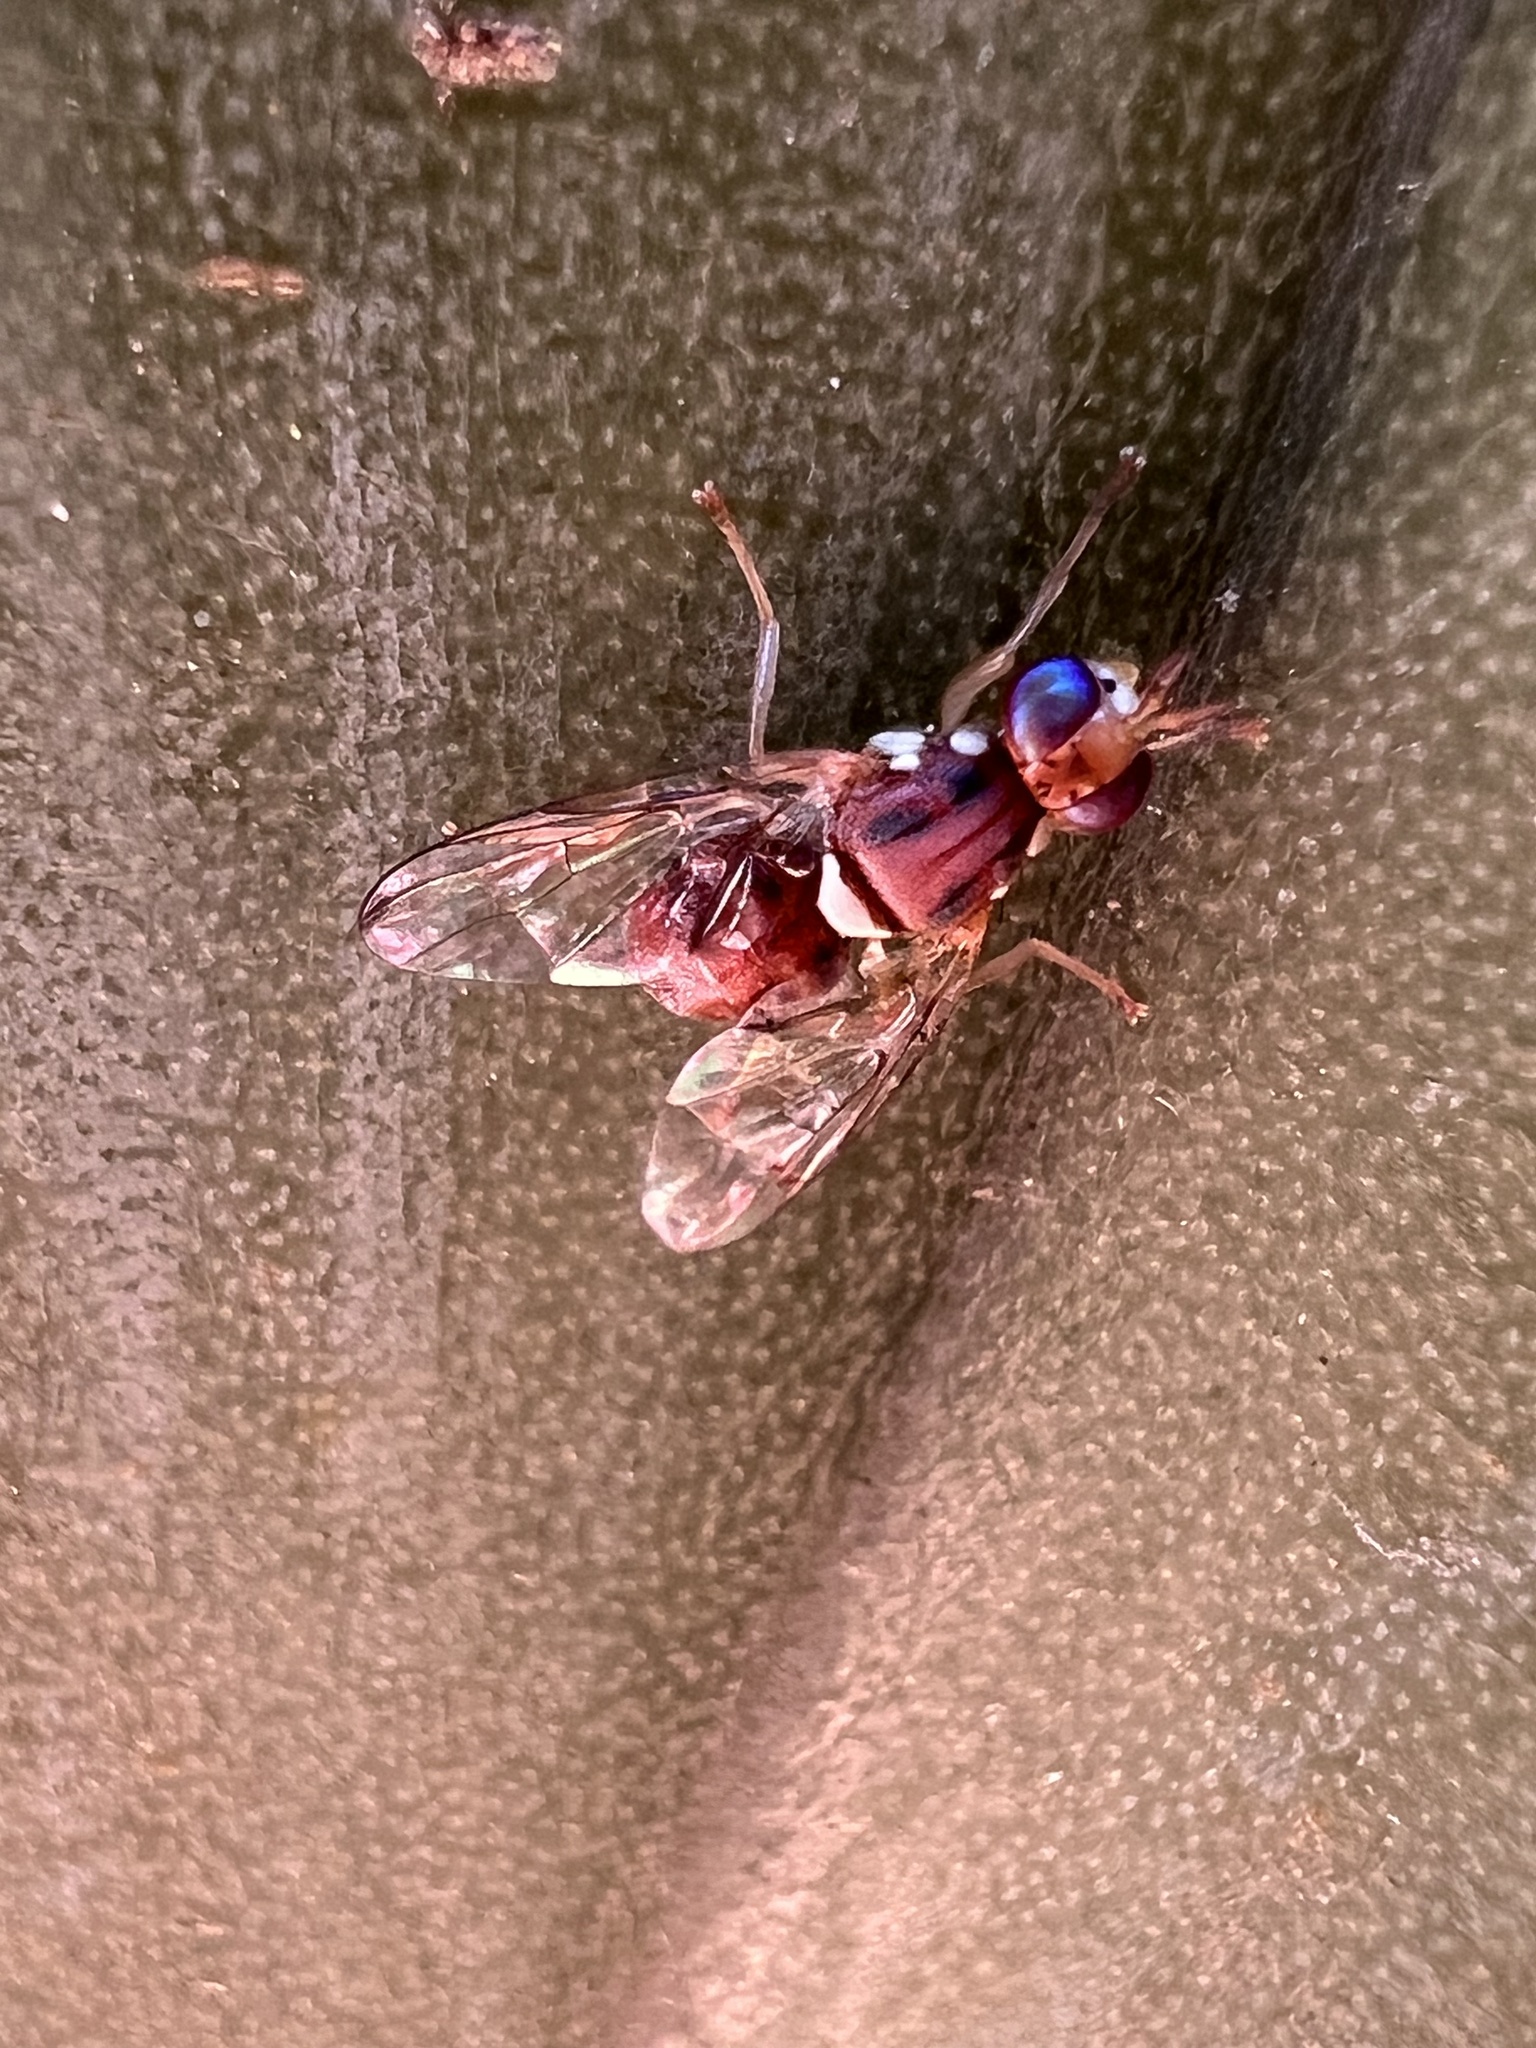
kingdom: Animalia
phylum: Arthropoda
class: Insecta
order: Diptera
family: Tephritidae
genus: Bactrocera
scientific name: Bactrocera oleae
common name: Olive fruit fly
